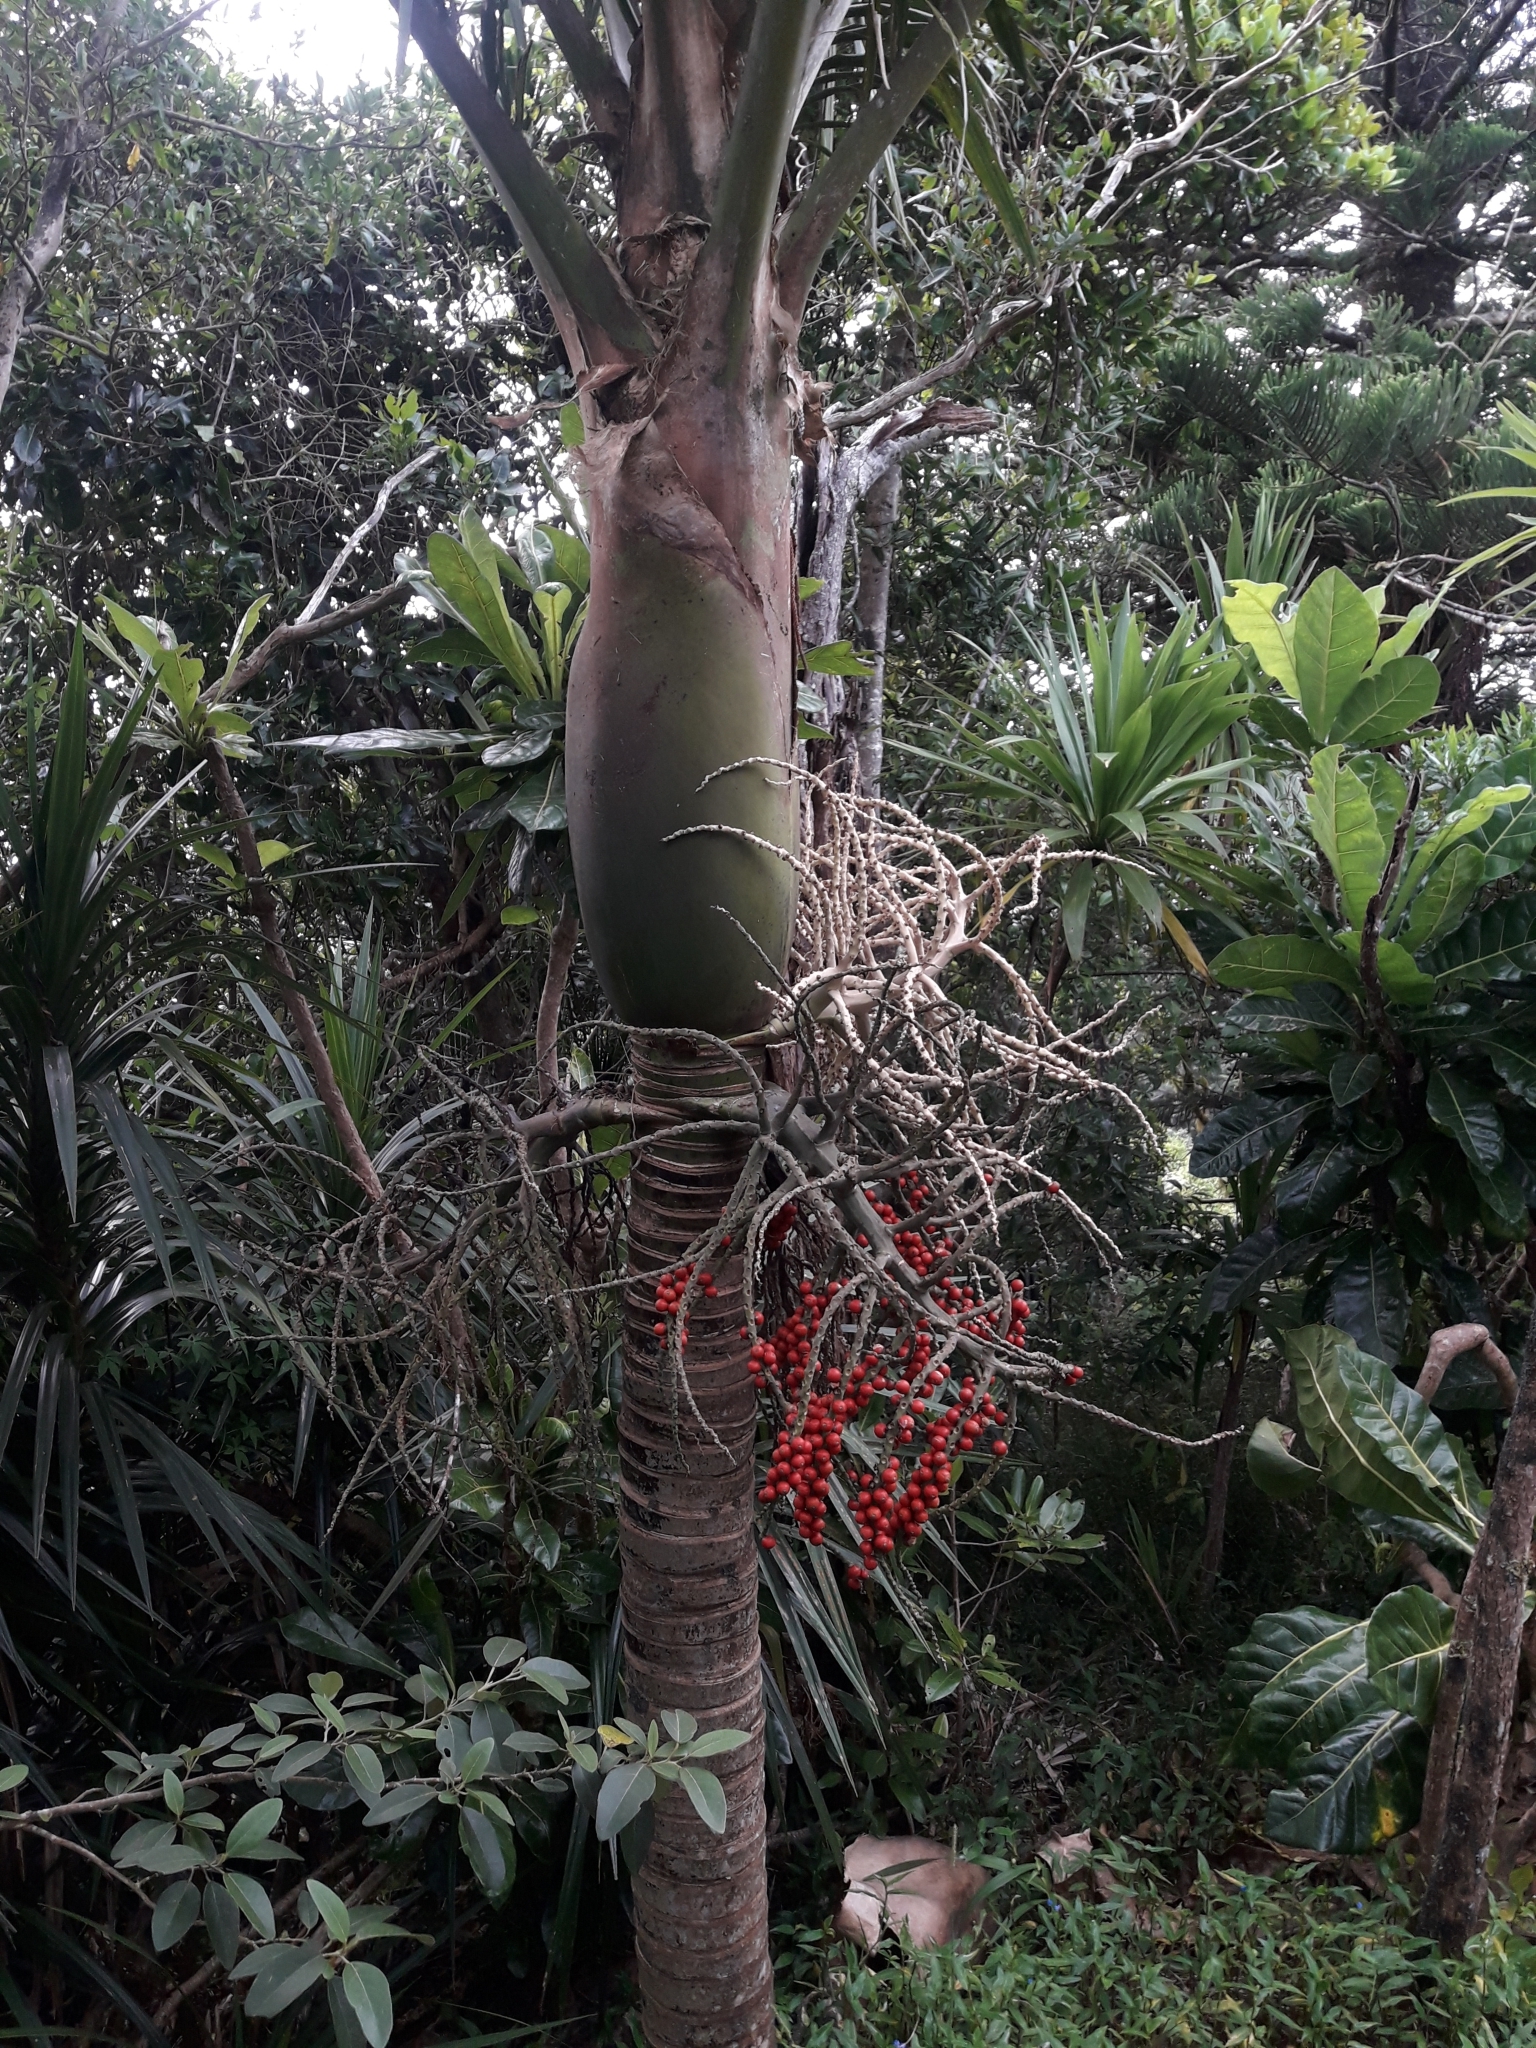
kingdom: Plantae
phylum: Tracheophyta
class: Liliopsida
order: Arecales
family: Arecaceae
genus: Rhopalostylis
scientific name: Rhopalostylis baueri
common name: Norfolk island palm
